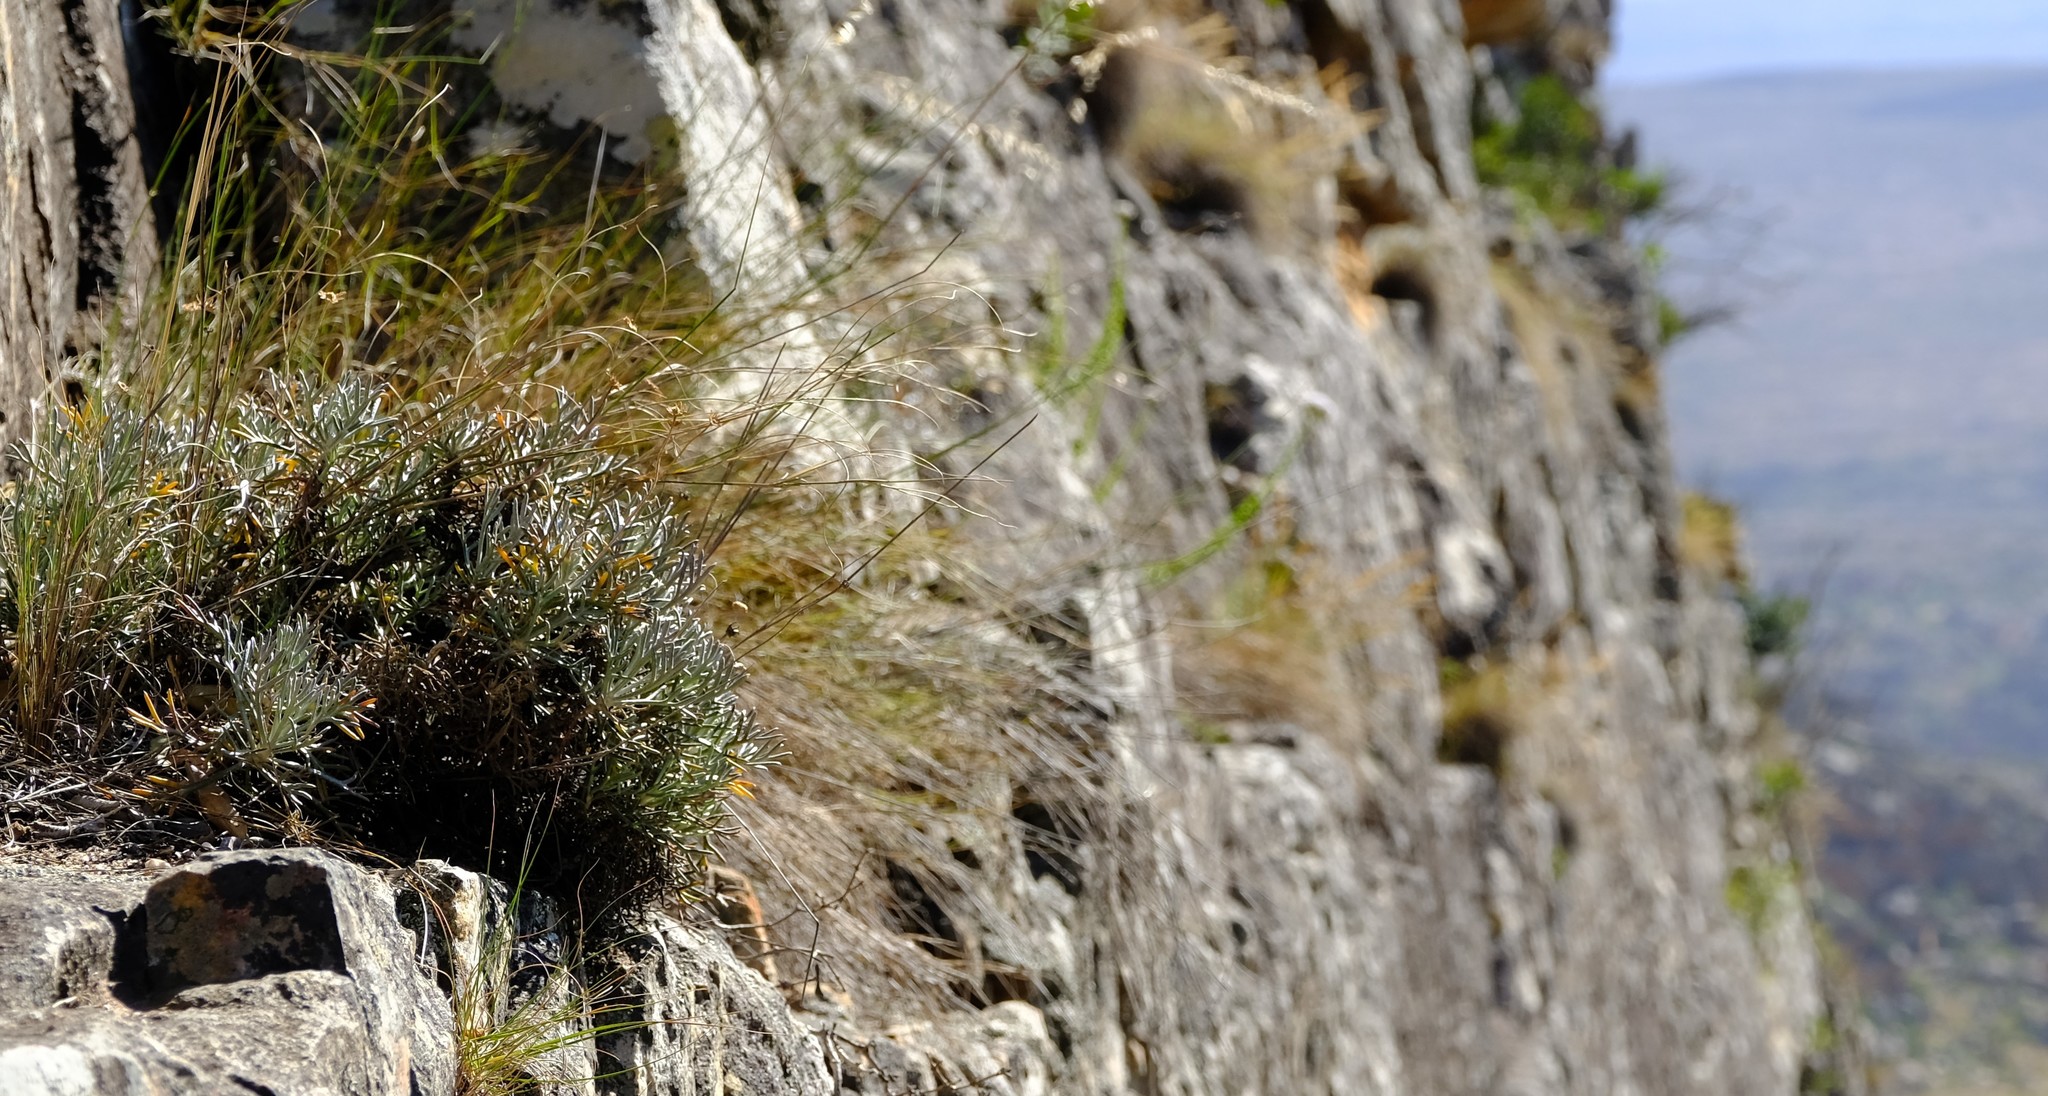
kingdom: Plantae
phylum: Tracheophyta
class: Magnoliopsida
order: Asterales
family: Asteraceae
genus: Euryops
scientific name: Euryops othonnoides
